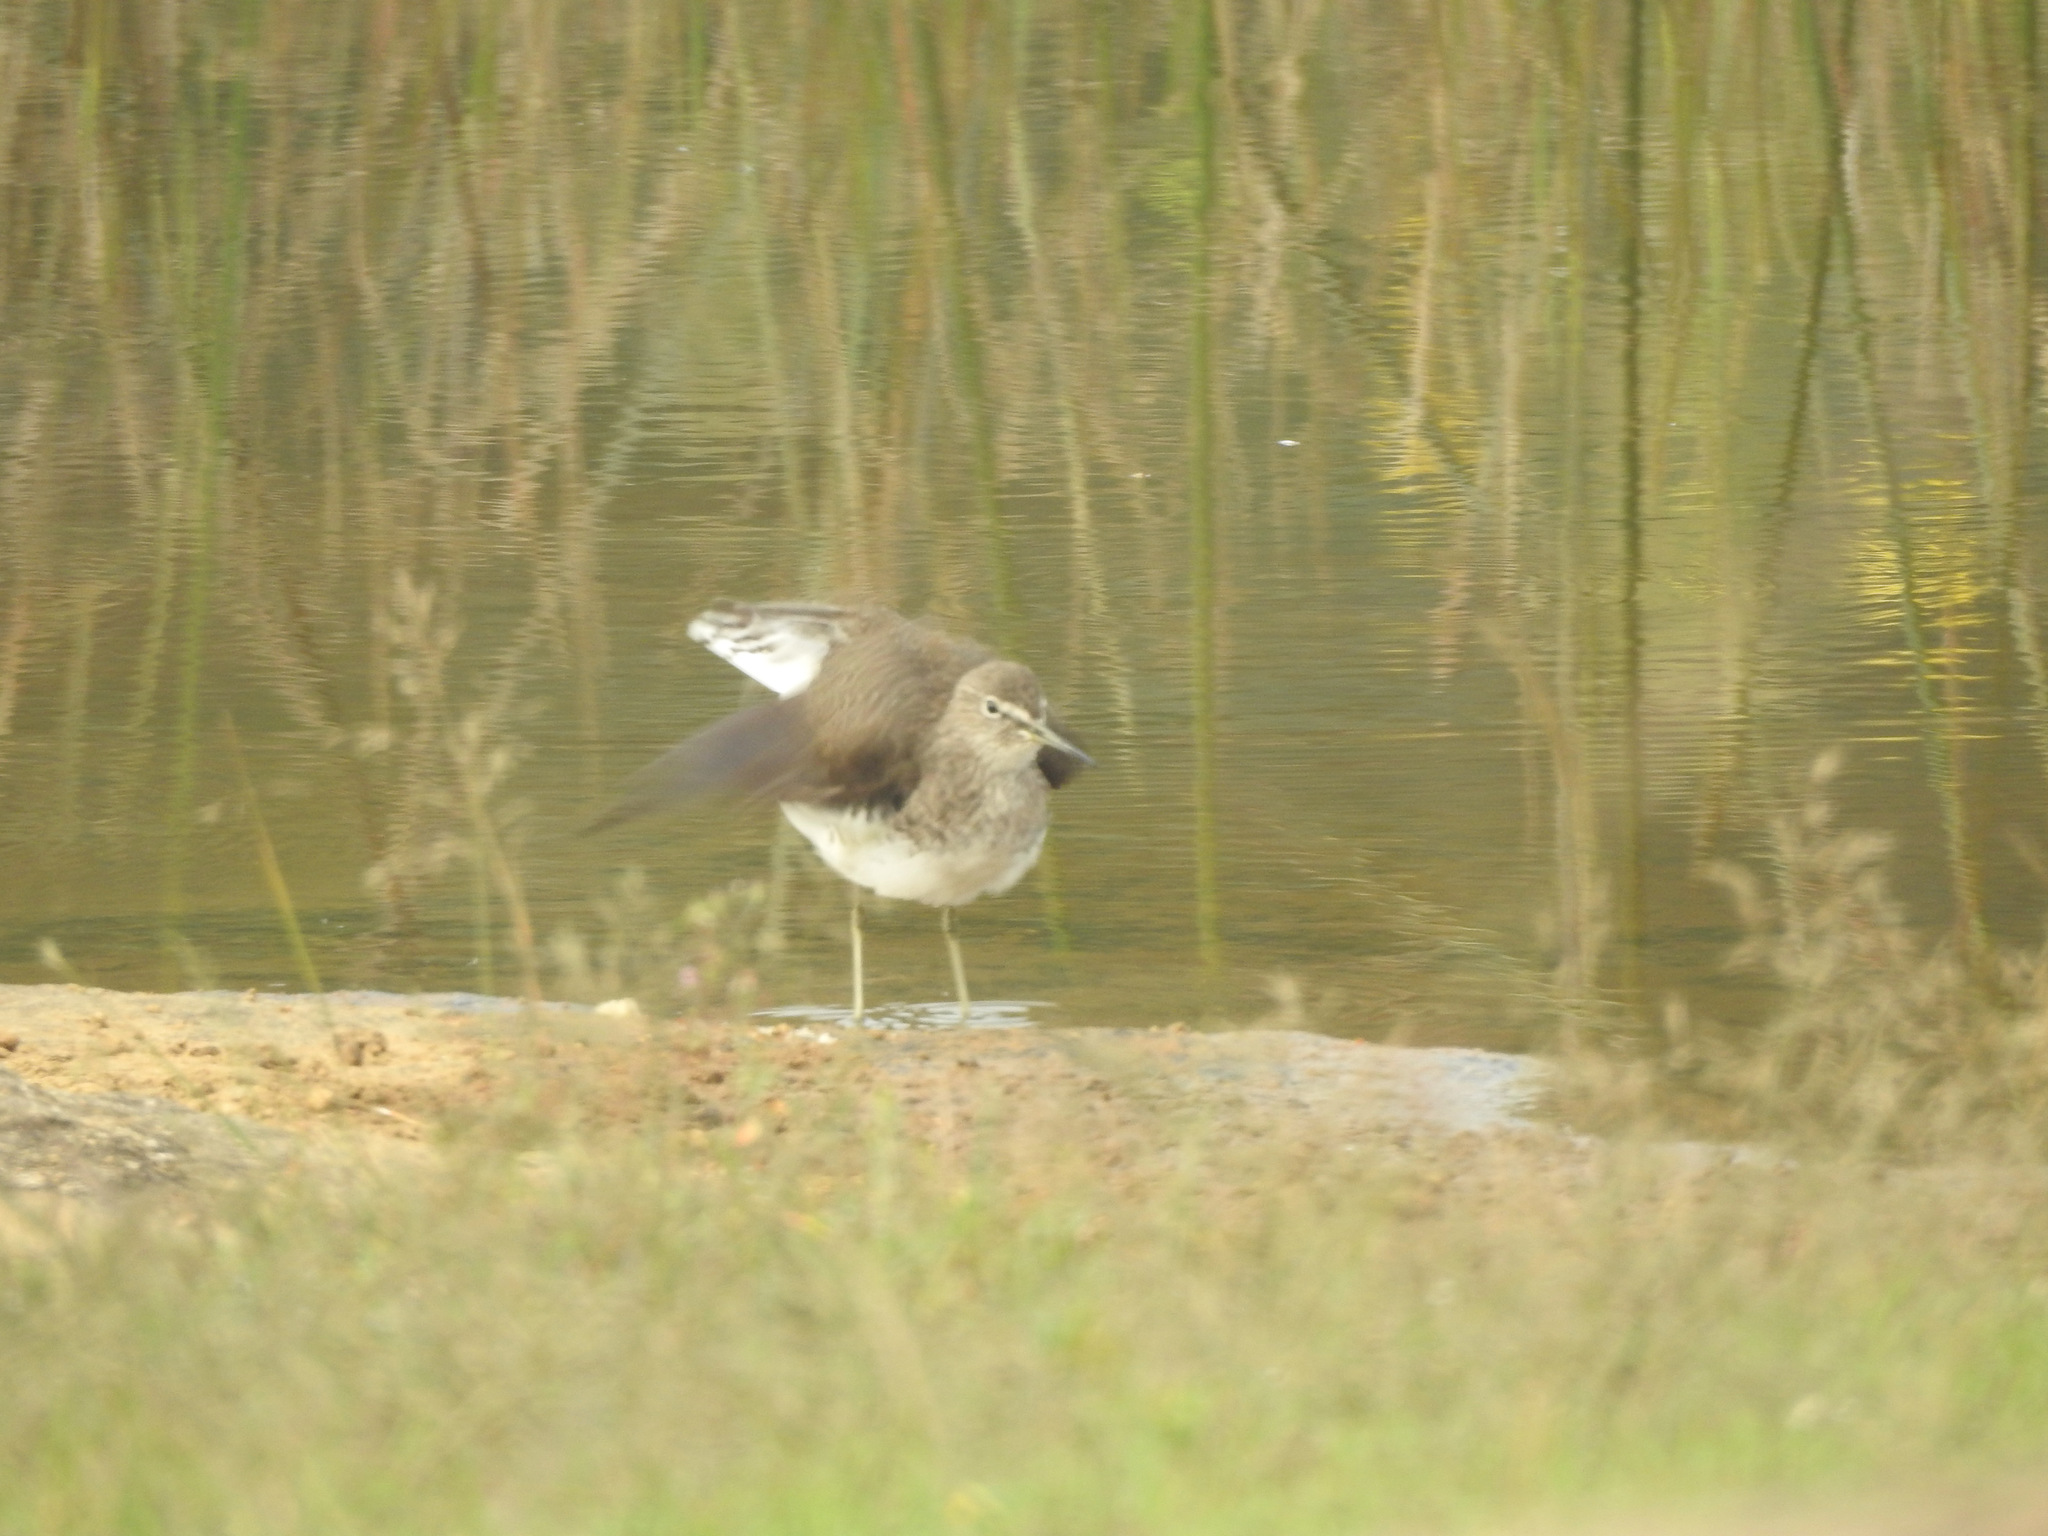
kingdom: Animalia
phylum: Chordata
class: Aves
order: Charadriiformes
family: Scolopacidae
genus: Tringa
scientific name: Tringa ochropus
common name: Green sandpiper
